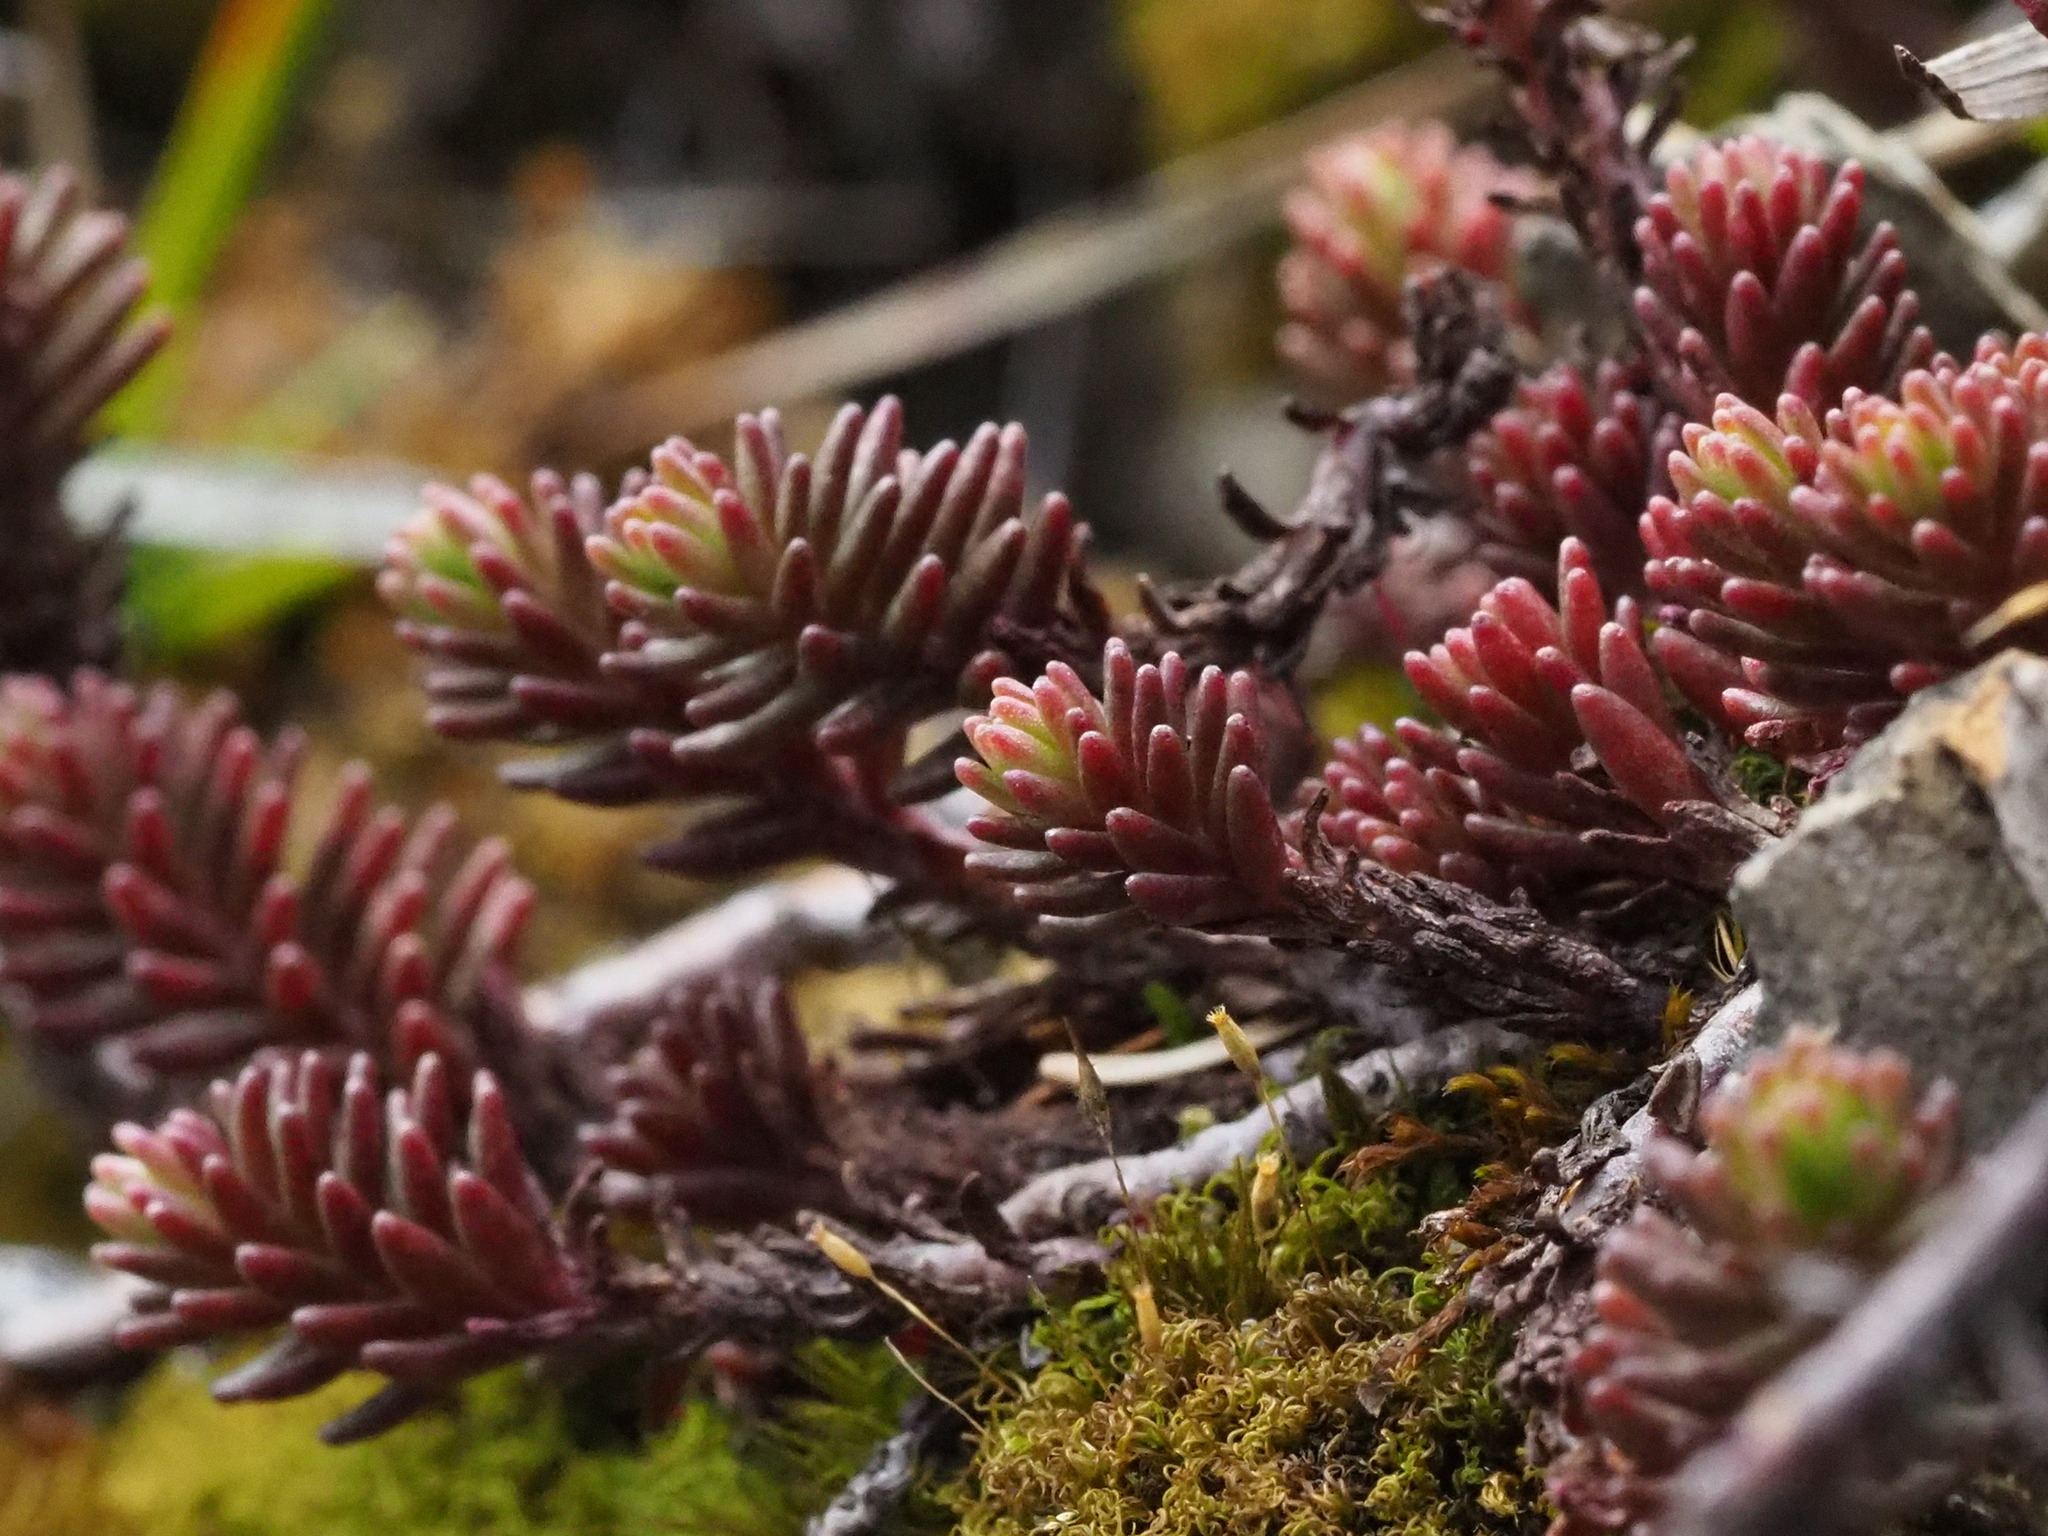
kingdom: Plantae
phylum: Tracheophyta
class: Magnoliopsida
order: Saxifragales
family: Crassulaceae
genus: Sedum
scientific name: Sedum morrisonense
